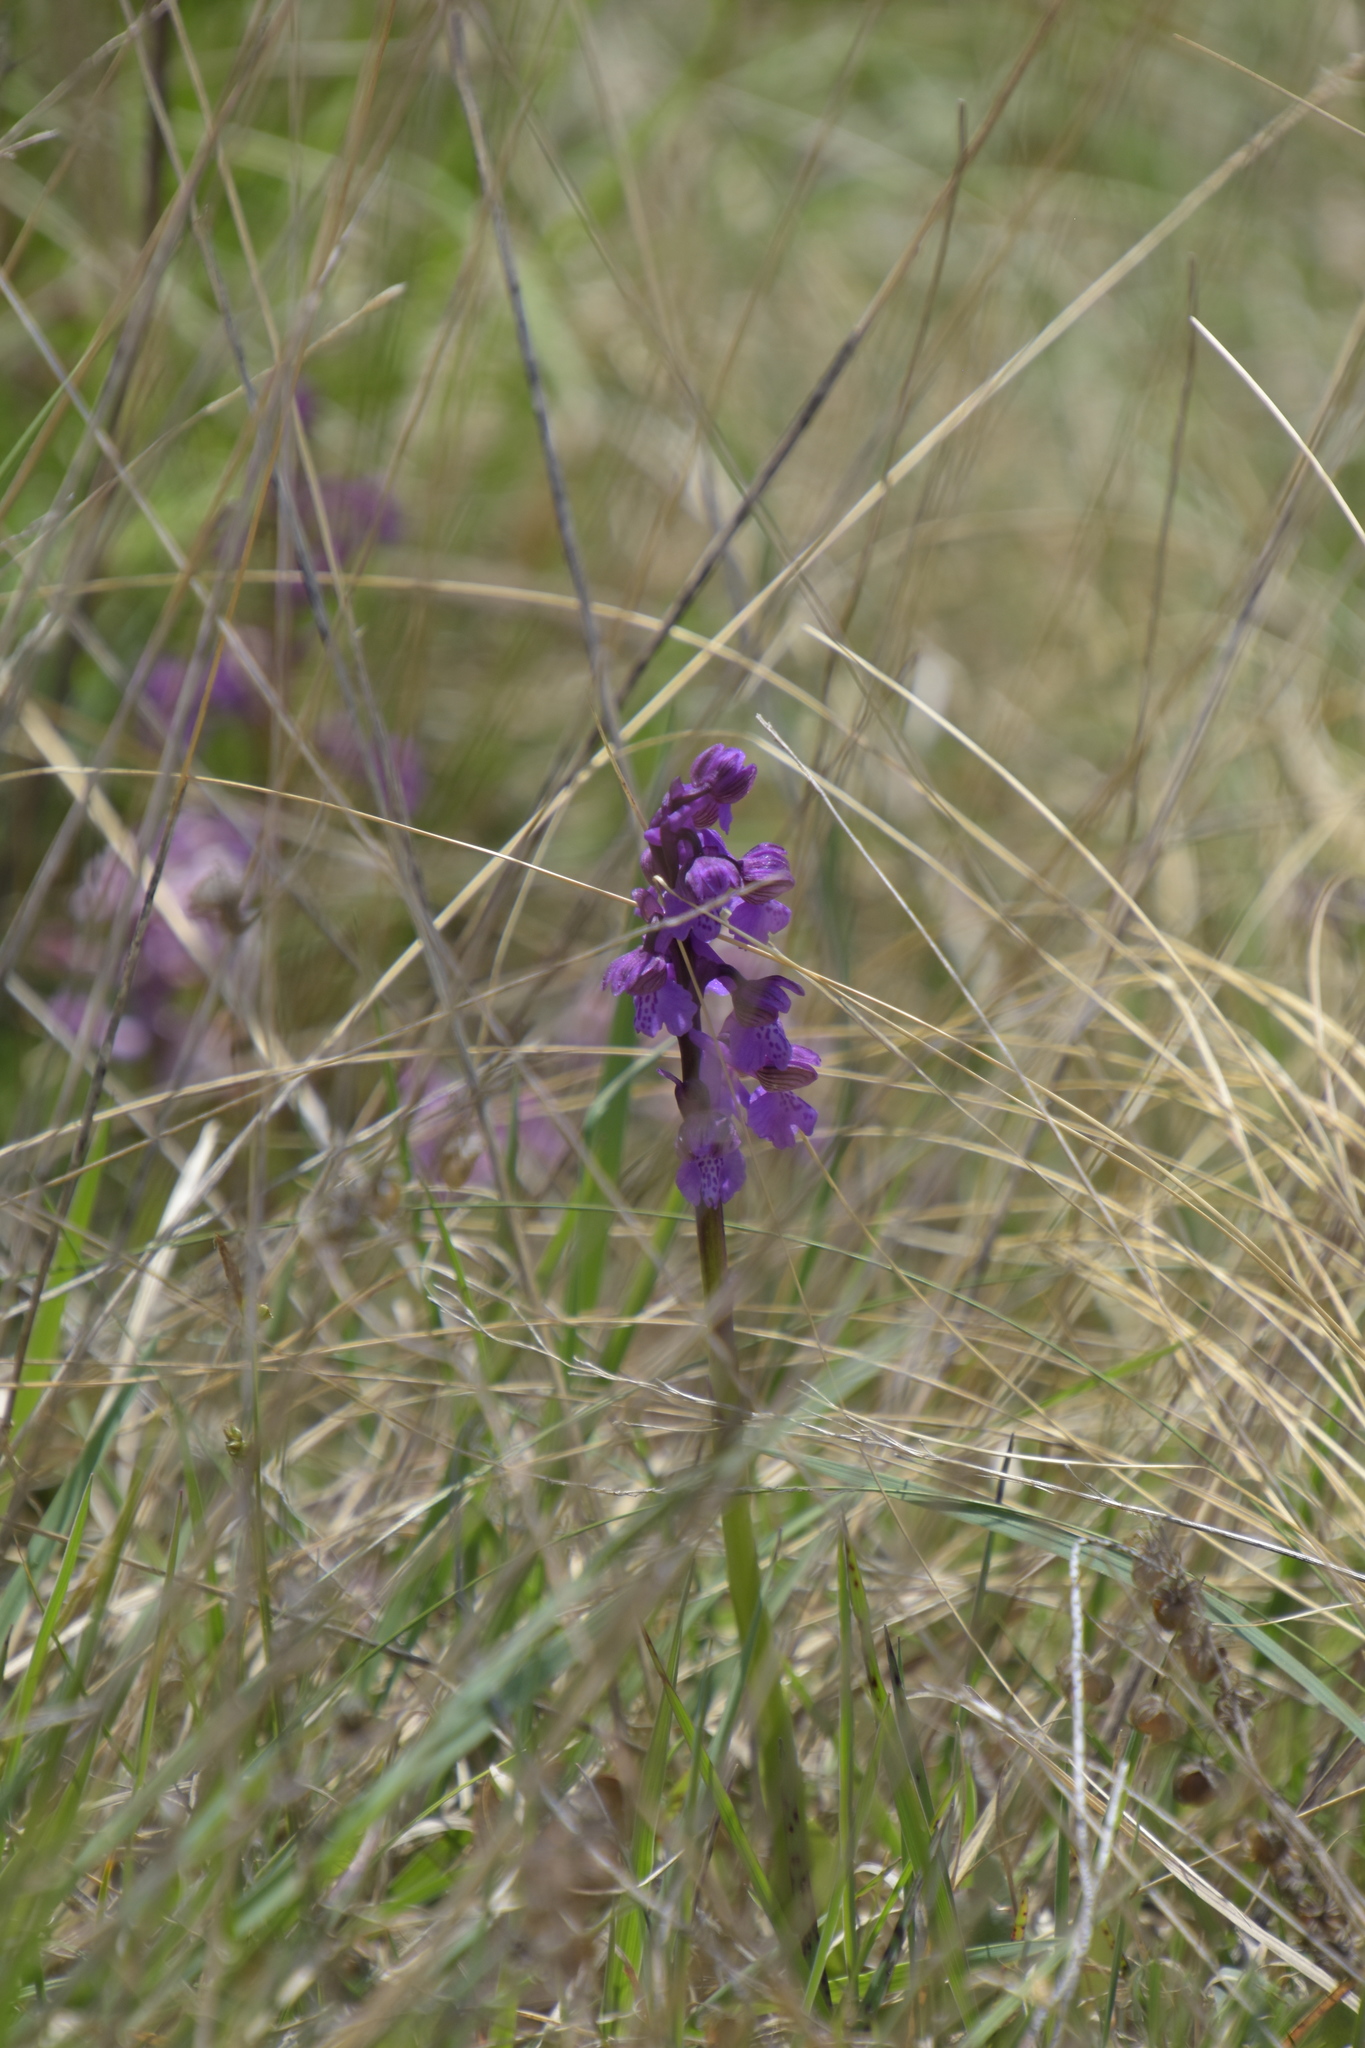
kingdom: Plantae
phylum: Tracheophyta
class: Liliopsida
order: Asparagales
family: Orchidaceae
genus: Anacamptis
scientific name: Anacamptis morio
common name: Green-winged orchid
